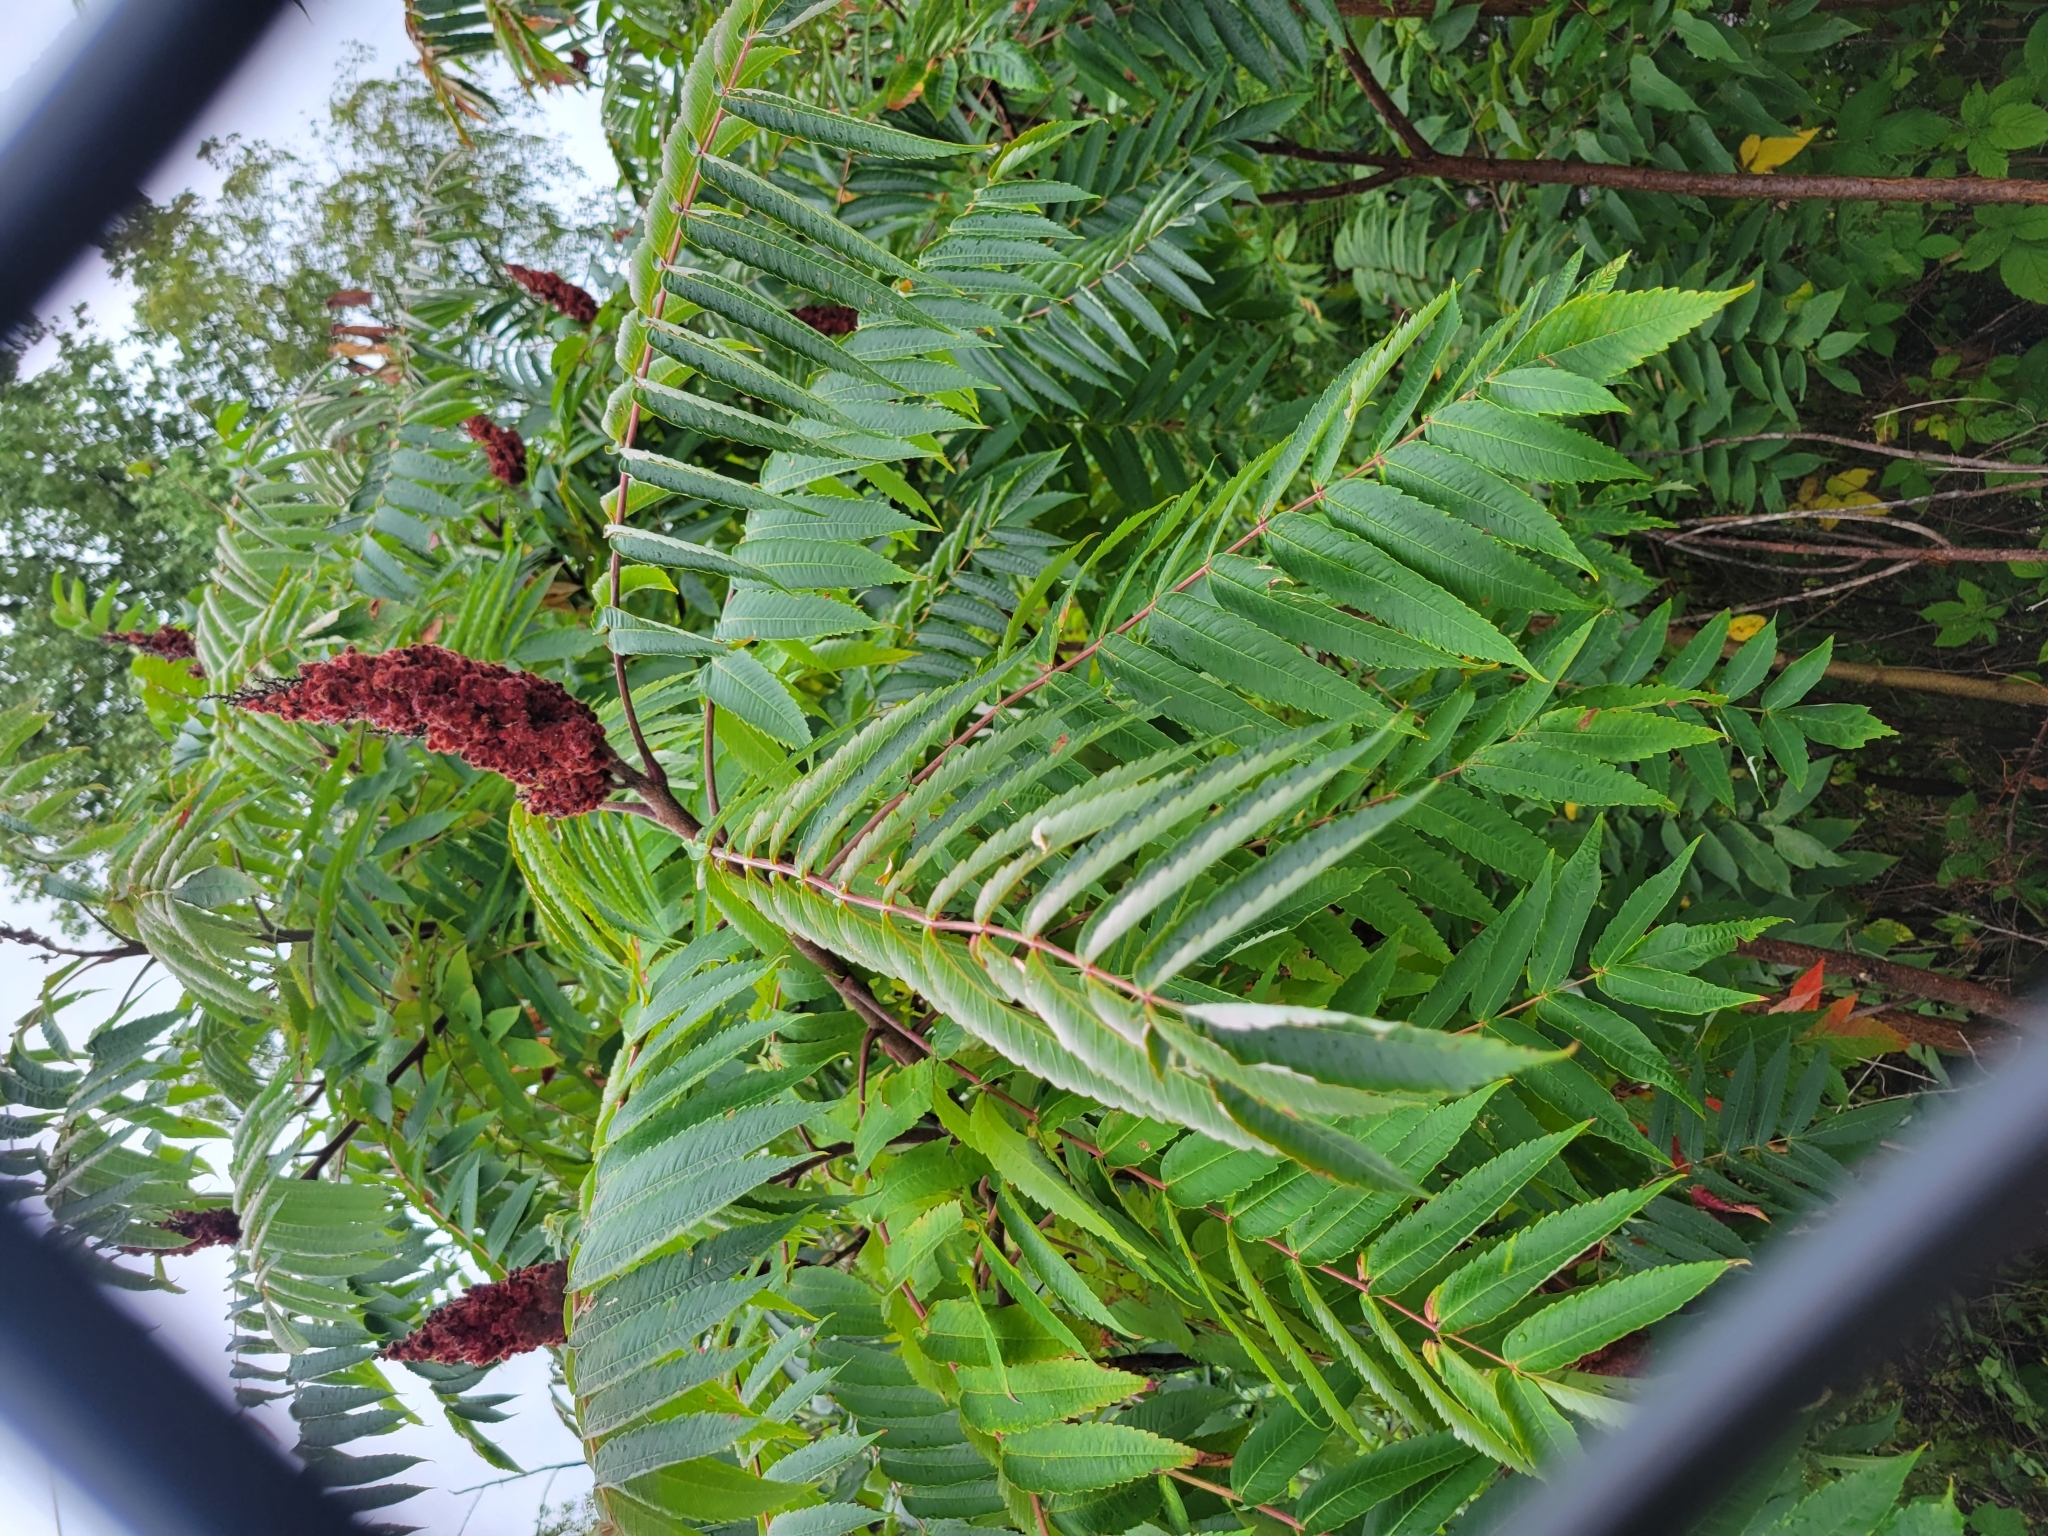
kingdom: Plantae
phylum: Tracheophyta
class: Magnoliopsida
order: Sapindales
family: Anacardiaceae
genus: Rhus
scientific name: Rhus typhina
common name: Staghorn sumac
